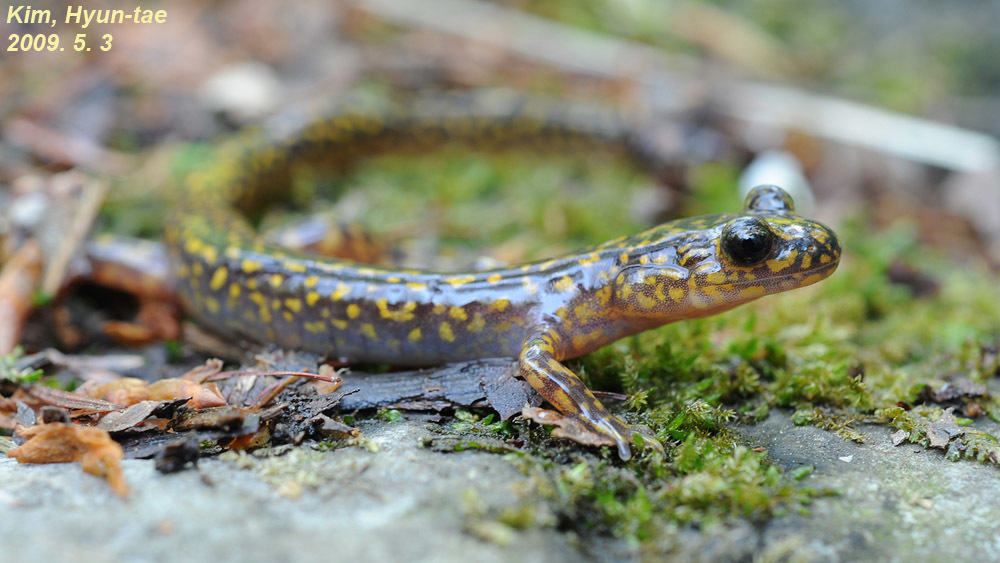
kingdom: Animalia
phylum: Chordata
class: Amphibia
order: Caudata
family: Hynobiidae
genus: Onychodactylus
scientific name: Onychodactylus koreanus
